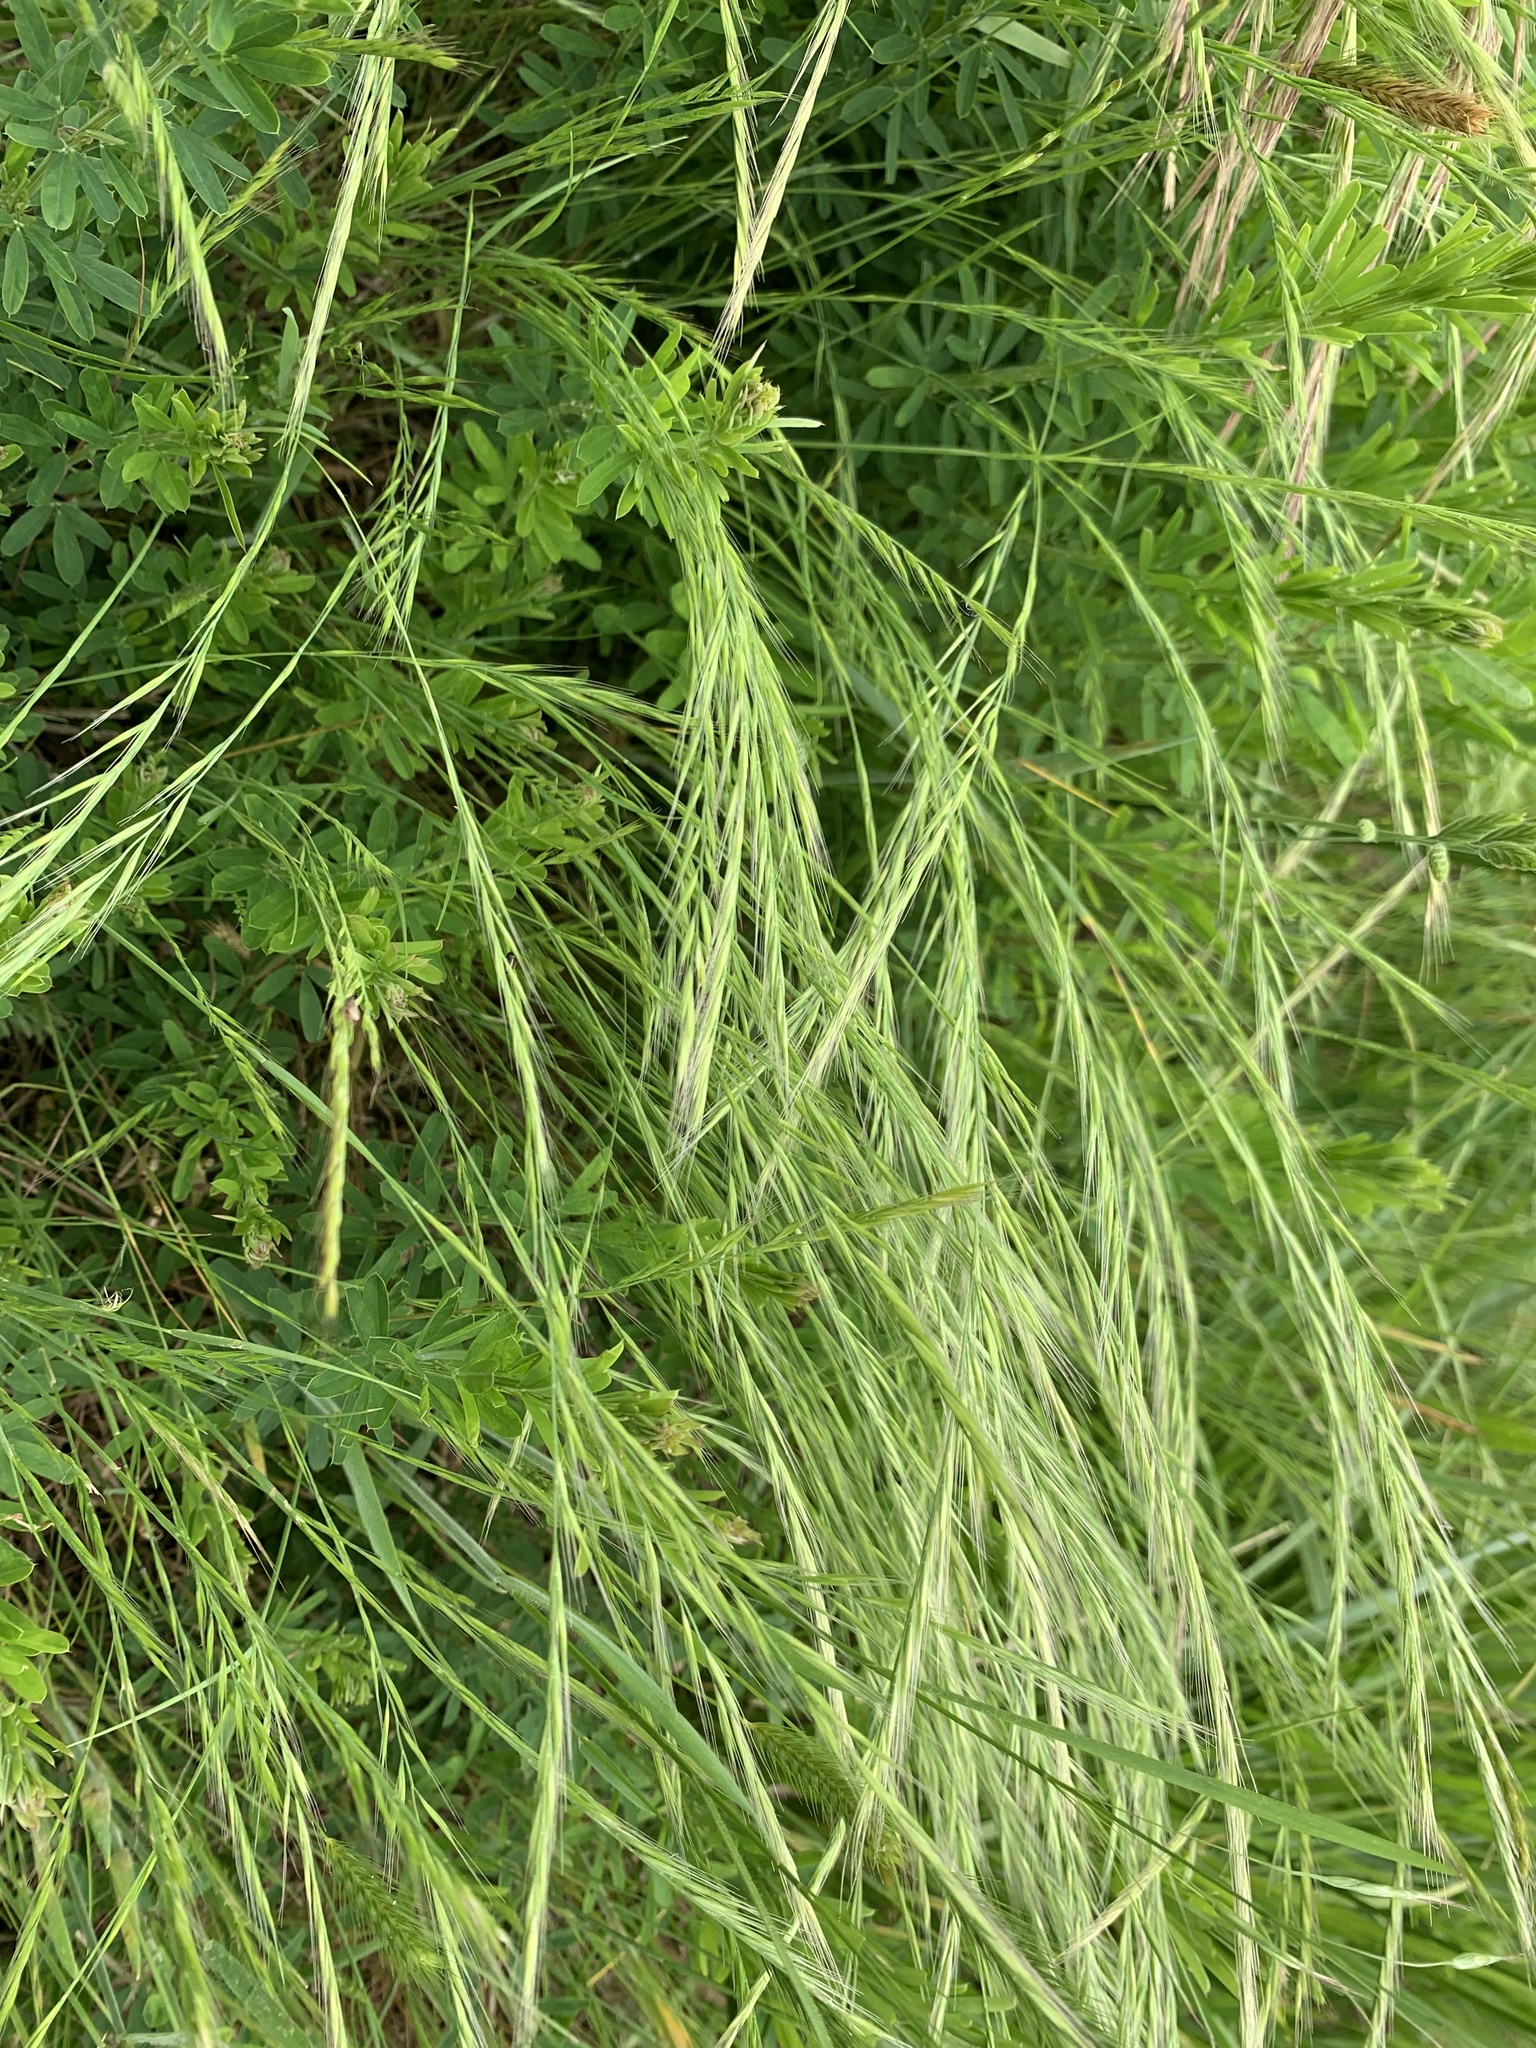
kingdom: Plantae
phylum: Tracheophyta
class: Liliopsida
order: Poales
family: Poaceae
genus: Lolium
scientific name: Lolium multiflorum
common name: Annual ryegrass
